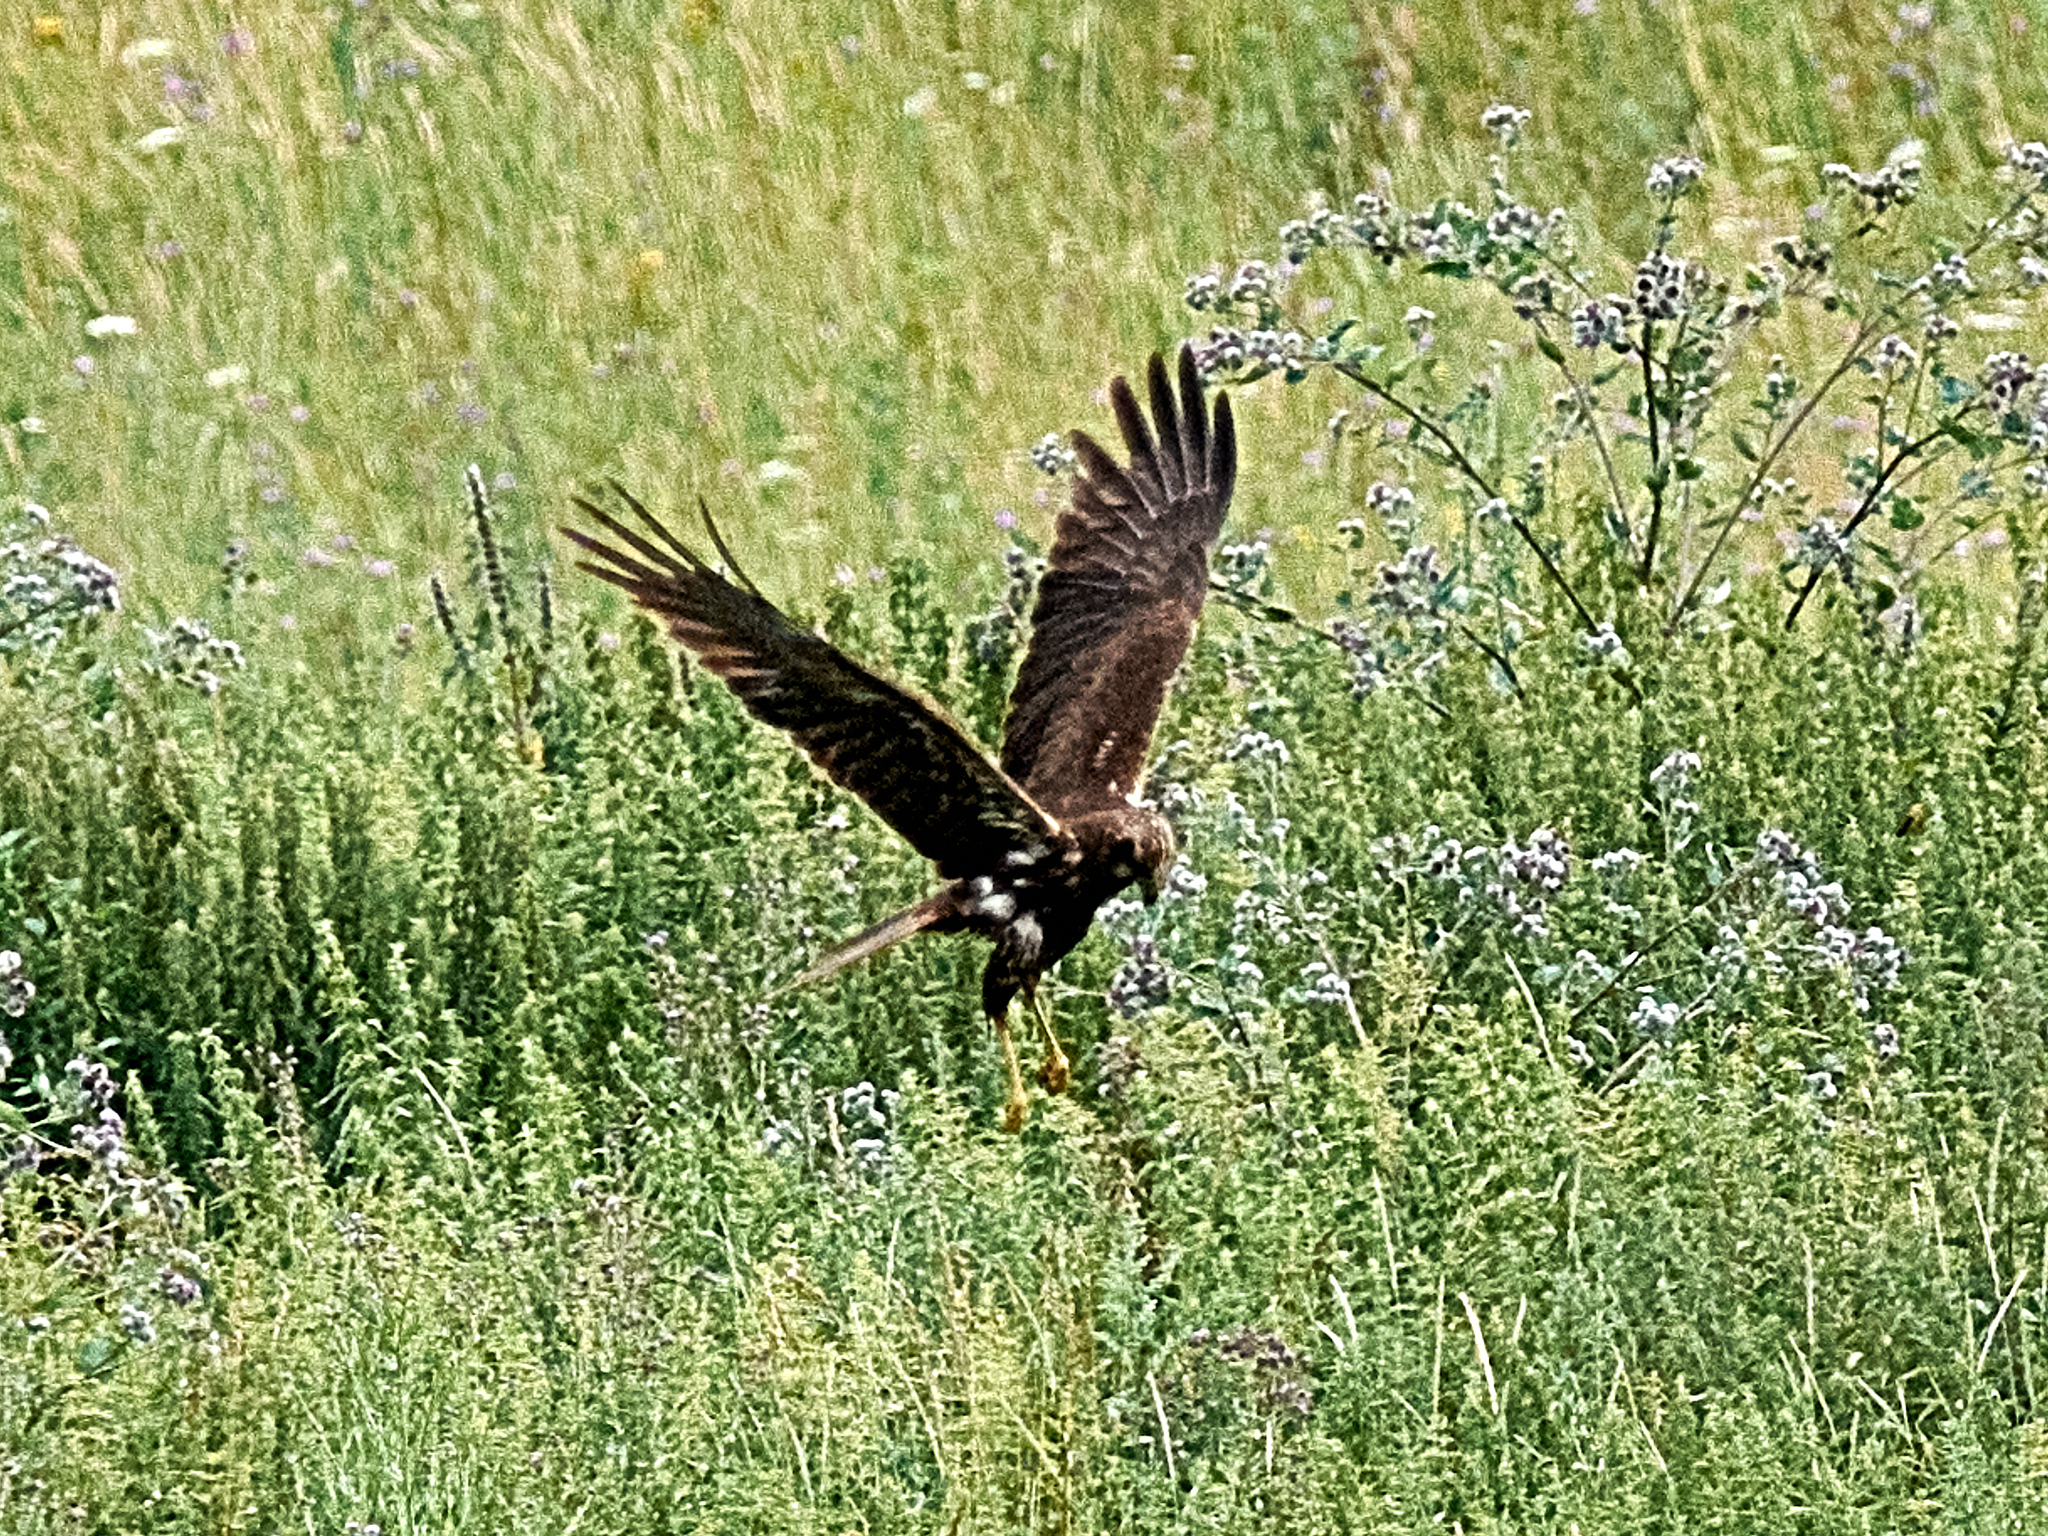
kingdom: Animalia
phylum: Chordata
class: Aves
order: Accipitriformes
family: Accipitridae
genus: Circus
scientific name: Circus aeruginosus
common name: Western marsh harrier
